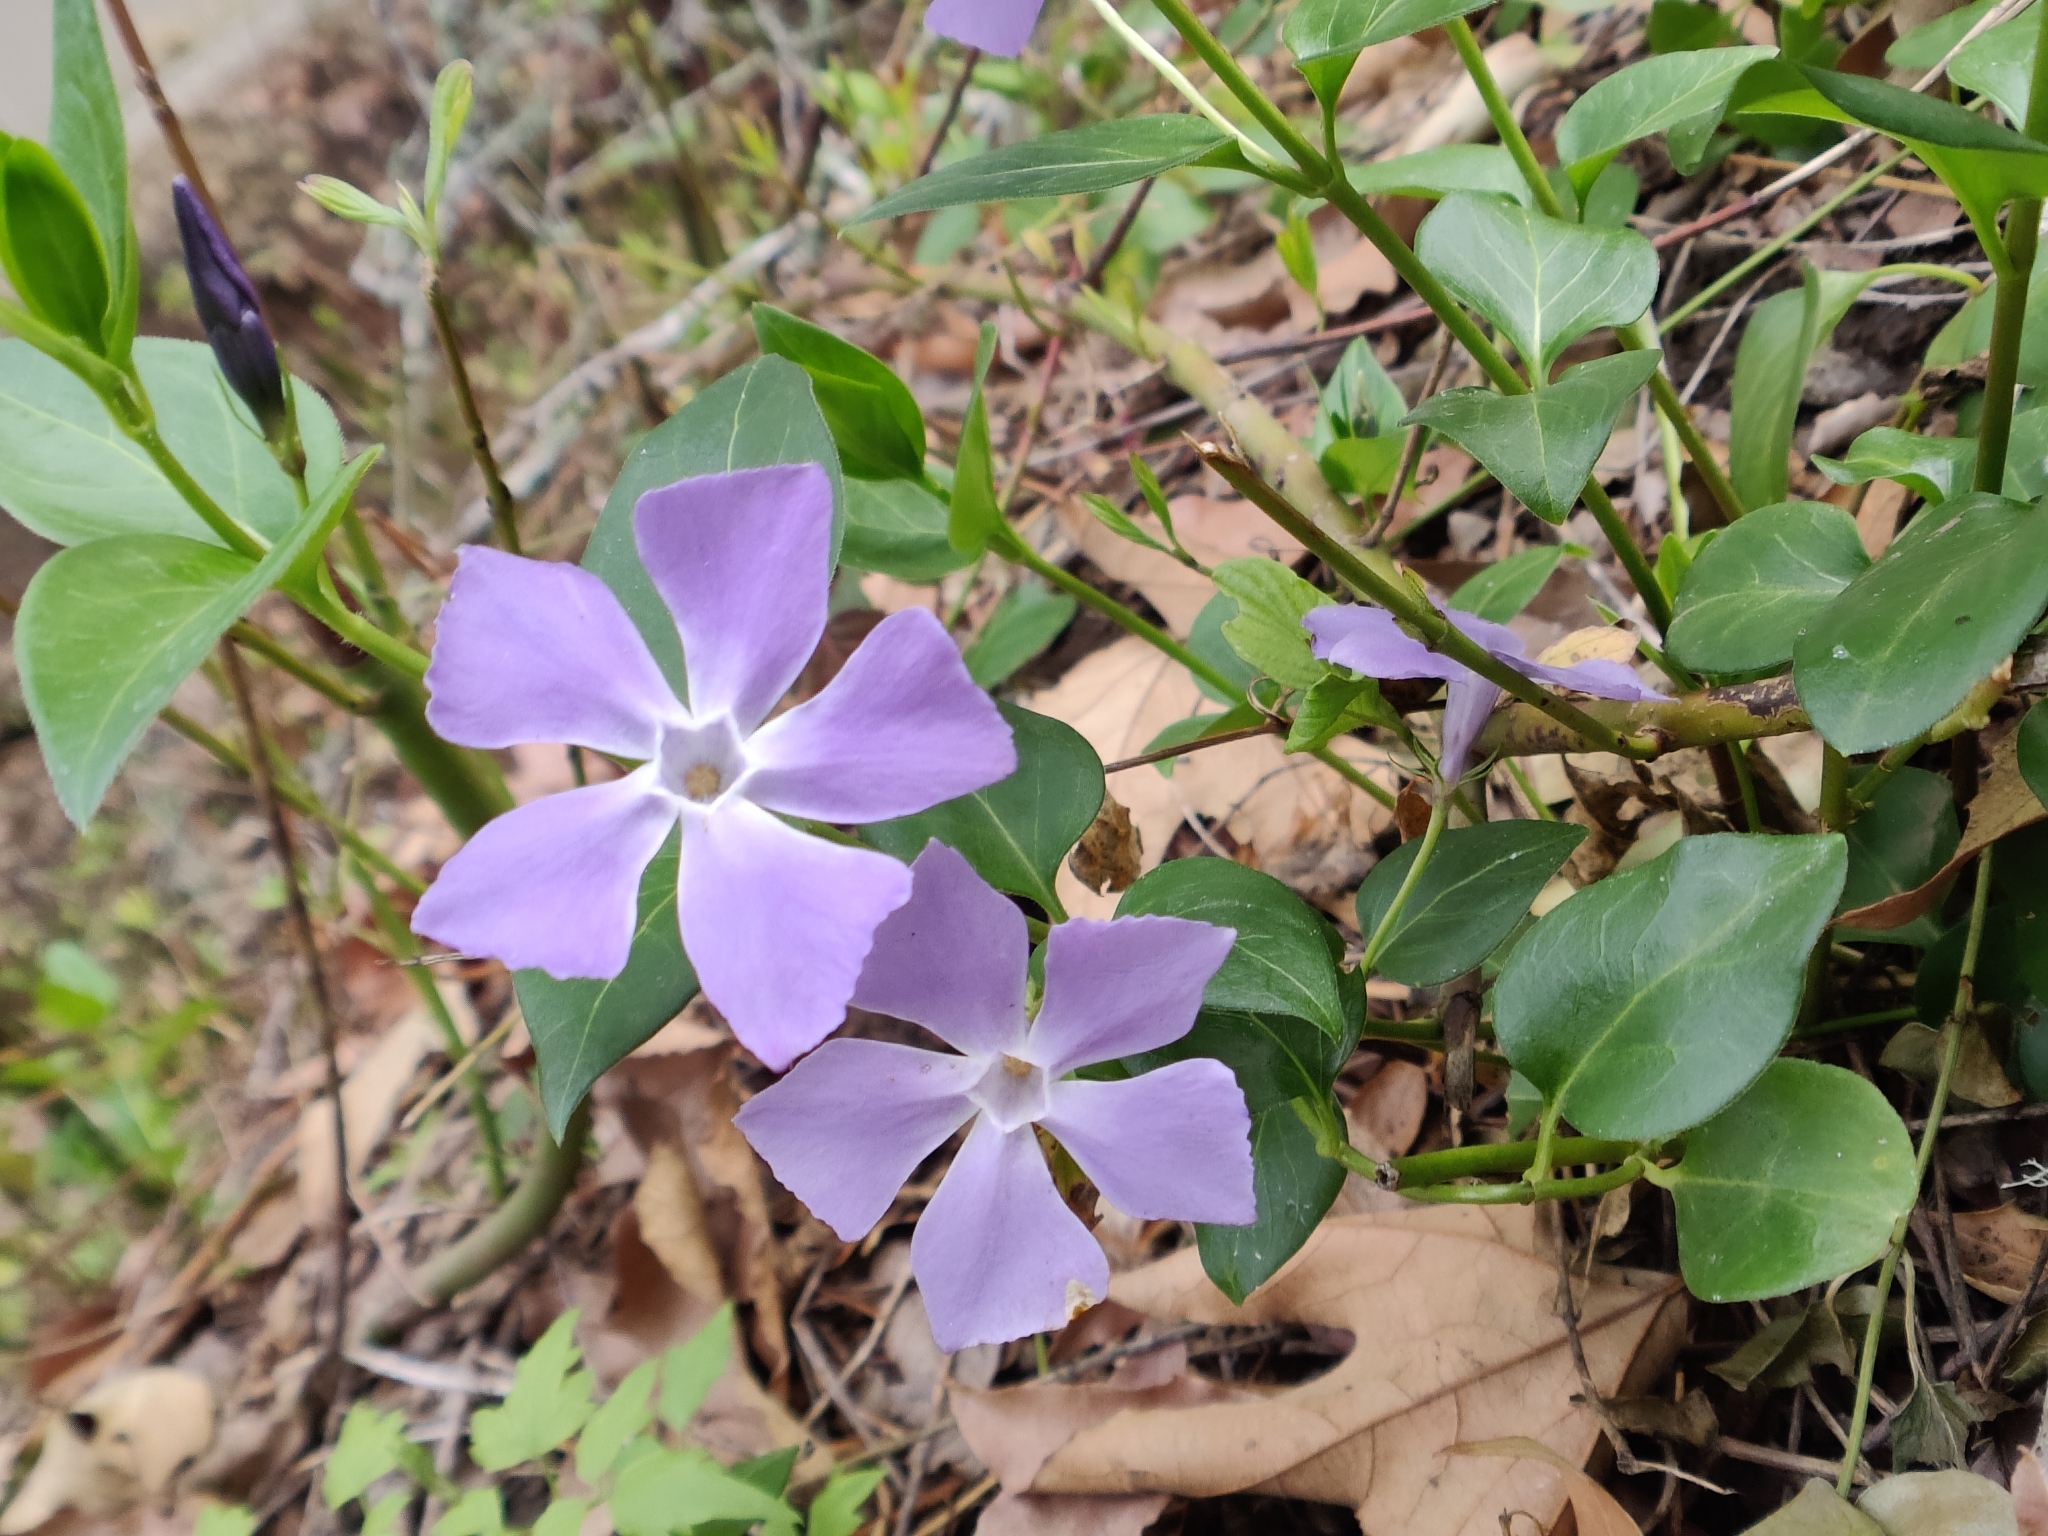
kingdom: Plantae
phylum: Tracheophyta
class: Magnoliopsida
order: Gentianales
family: Apocynaceae
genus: Vinca
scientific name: Vinca major
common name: Greater periwinkle
